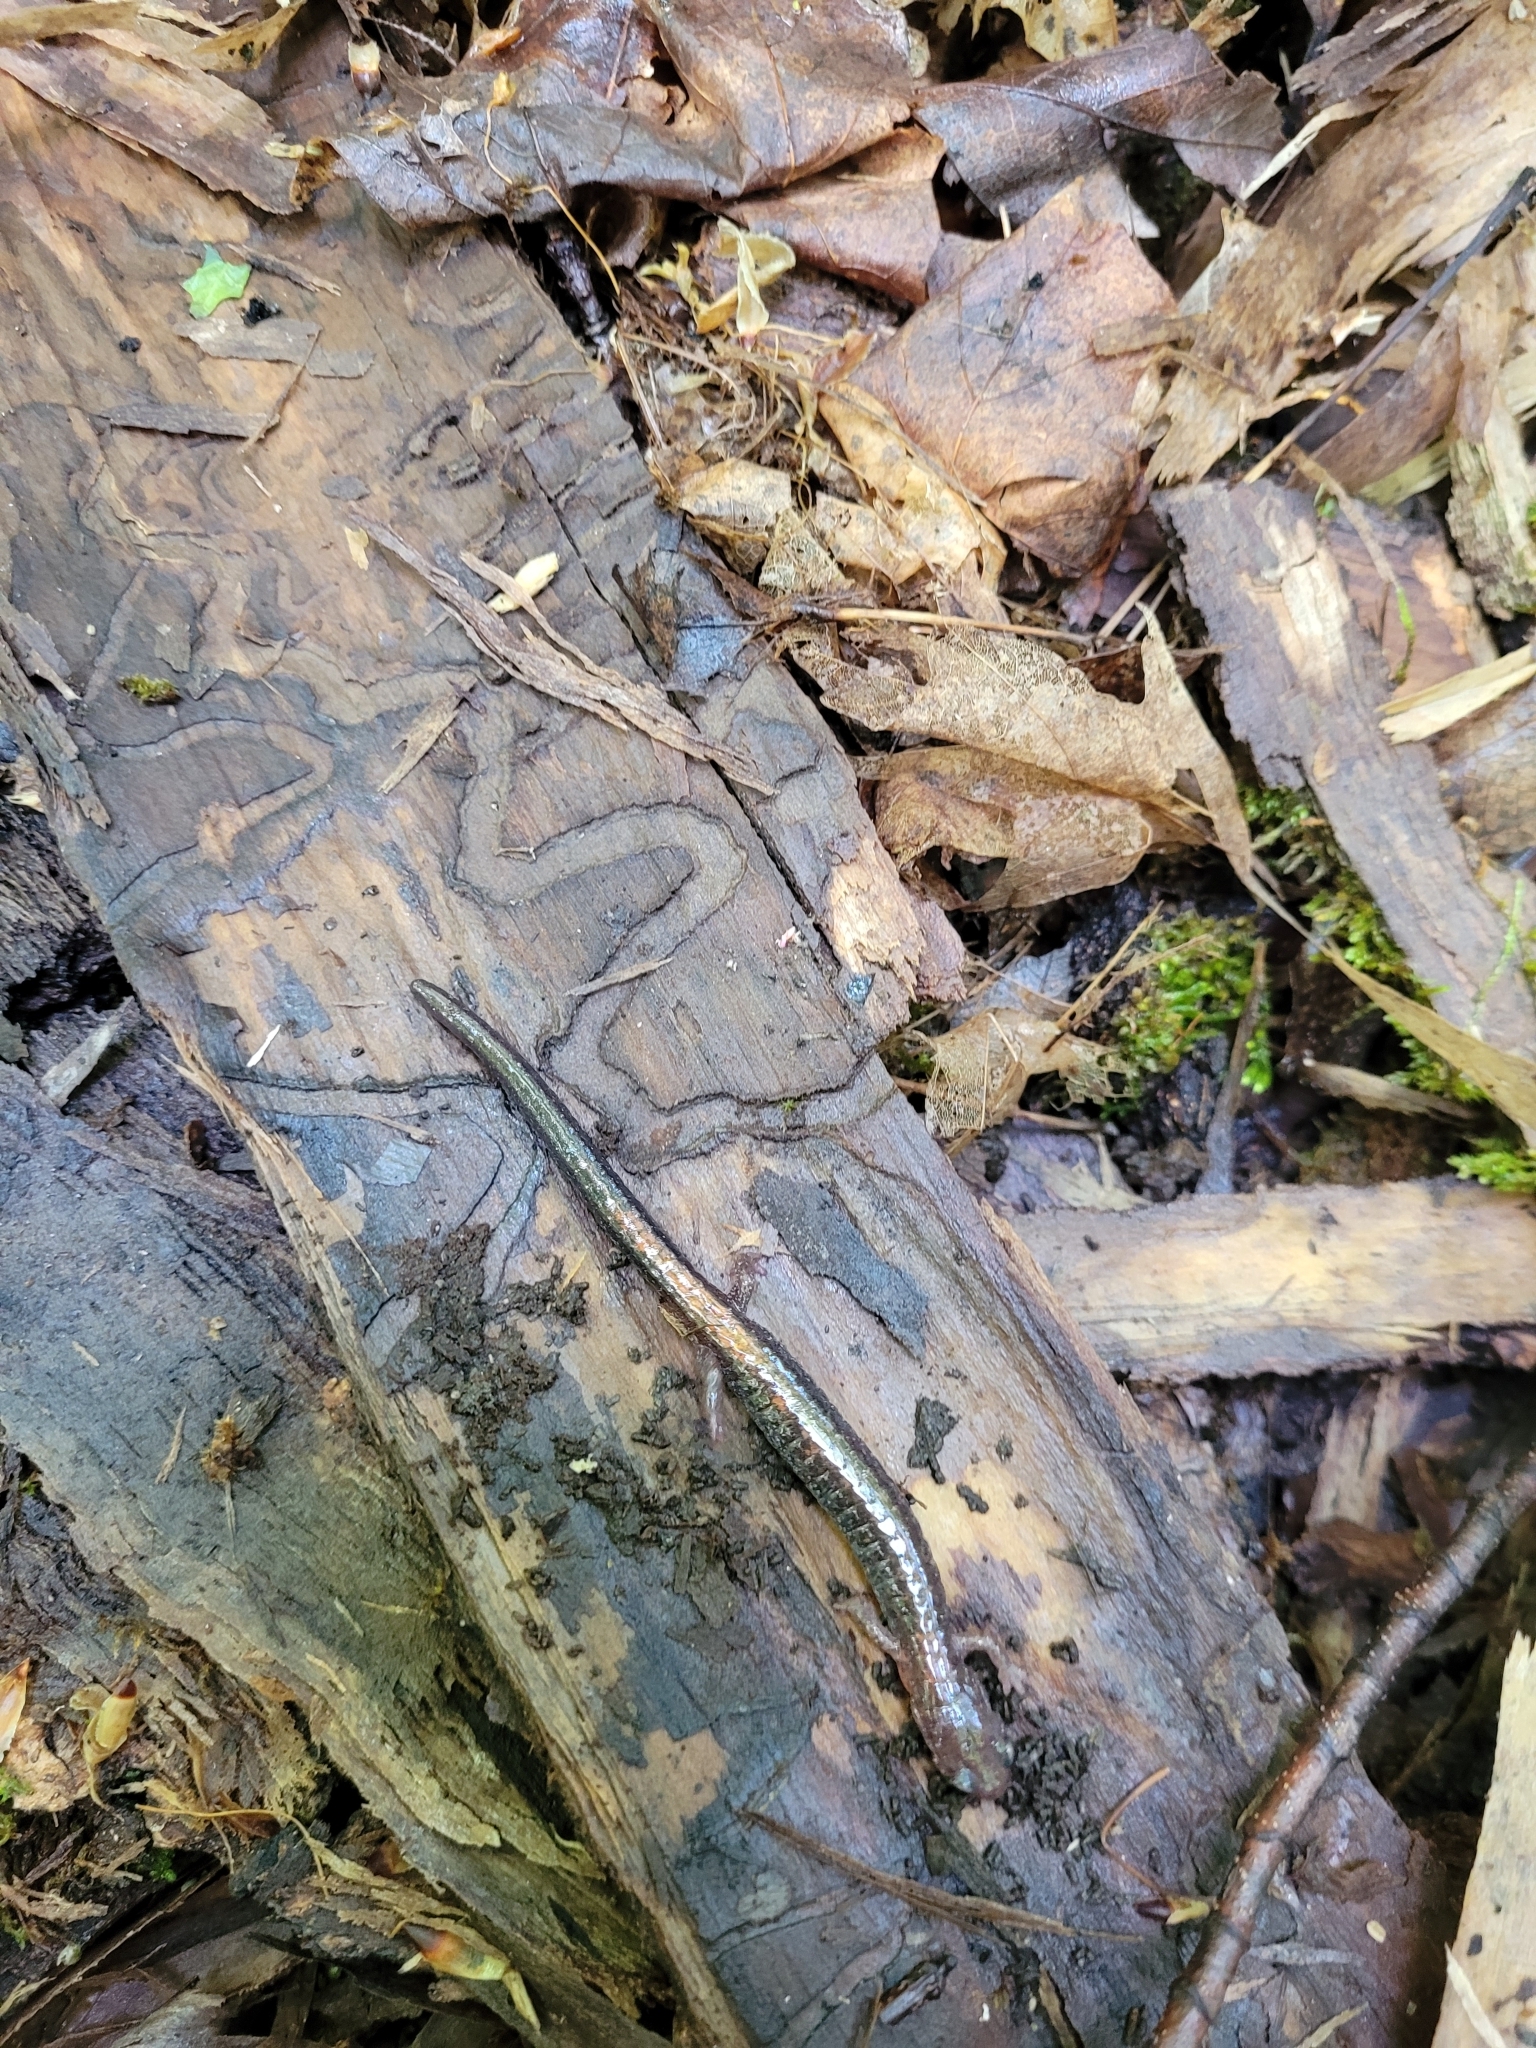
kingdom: Animalia
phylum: Chordata
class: Amphibia
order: Caudata
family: Plethodontidae
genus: Plethodon
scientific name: Plethodon cinereus
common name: Redback salamander
